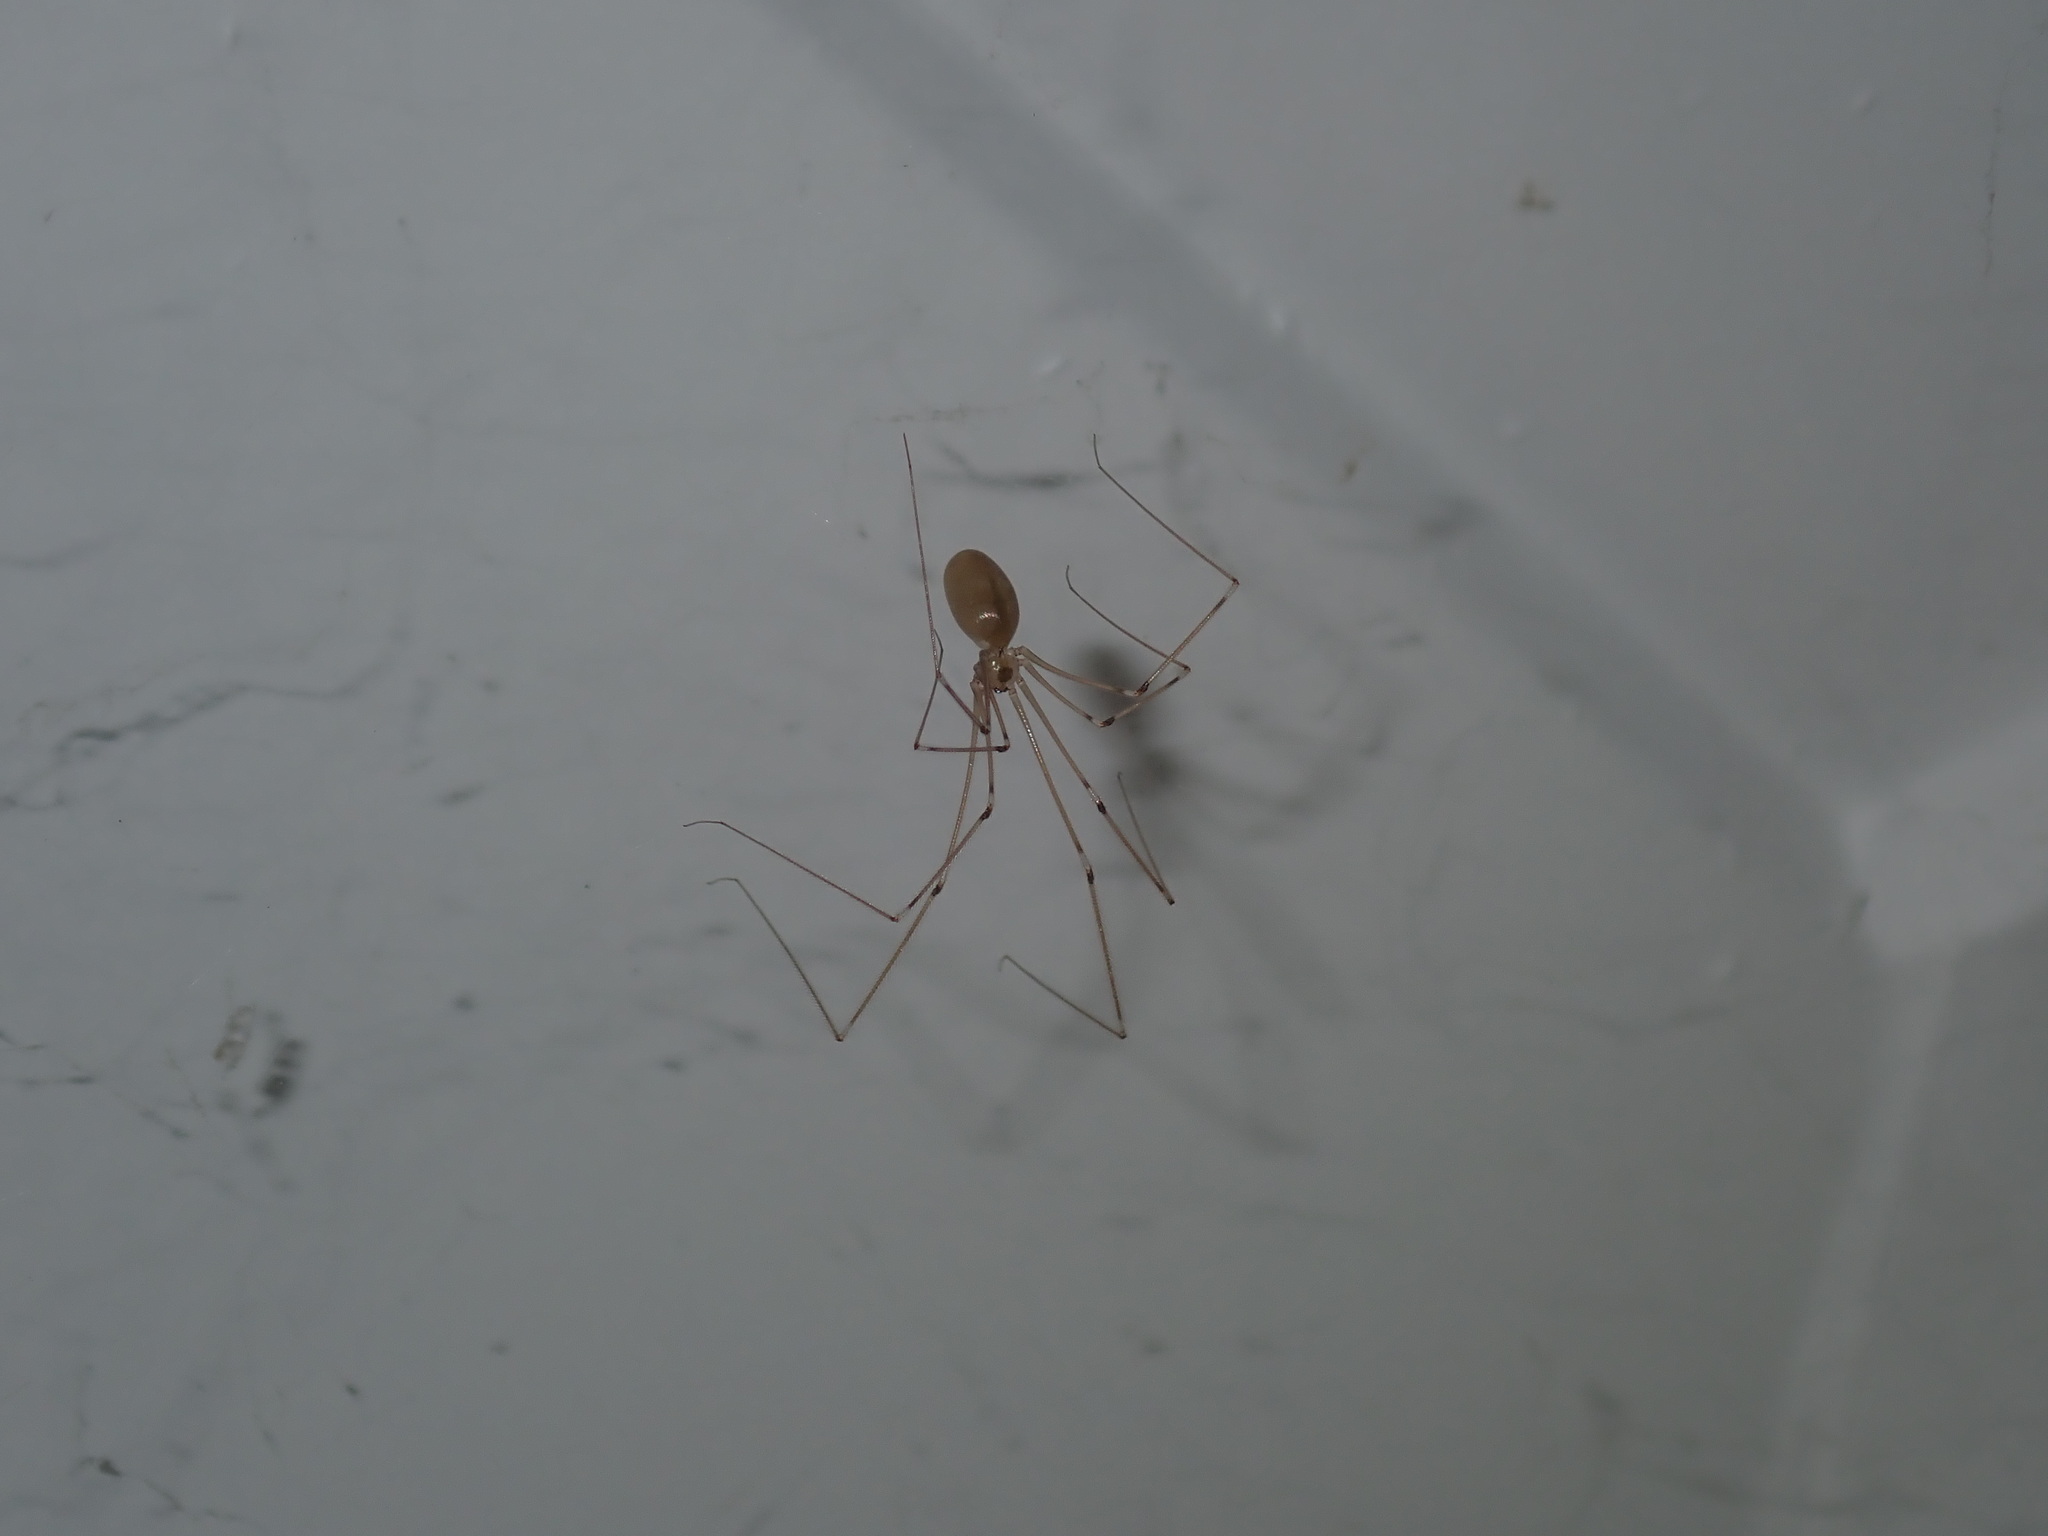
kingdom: Animalia
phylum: Arthropoda
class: Arachnida
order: Araneae
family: Pholcidae
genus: Pholcus
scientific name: Pholcus phalangioides
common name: Longbodied cellar spider
